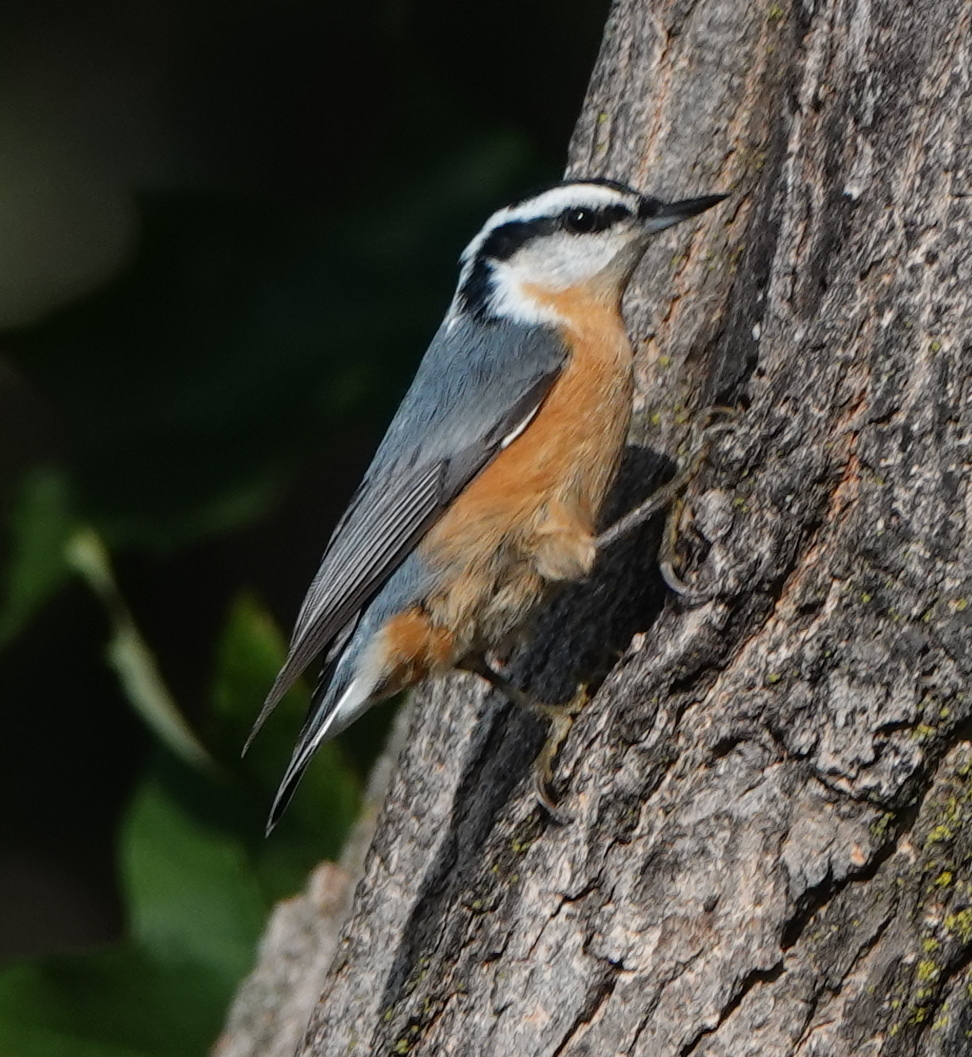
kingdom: Animalia
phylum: Chordata
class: Aves
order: Passeriformes
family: Sittidae
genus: Sitta
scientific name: Sitta canadensis
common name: Red-breasted nuthatch
